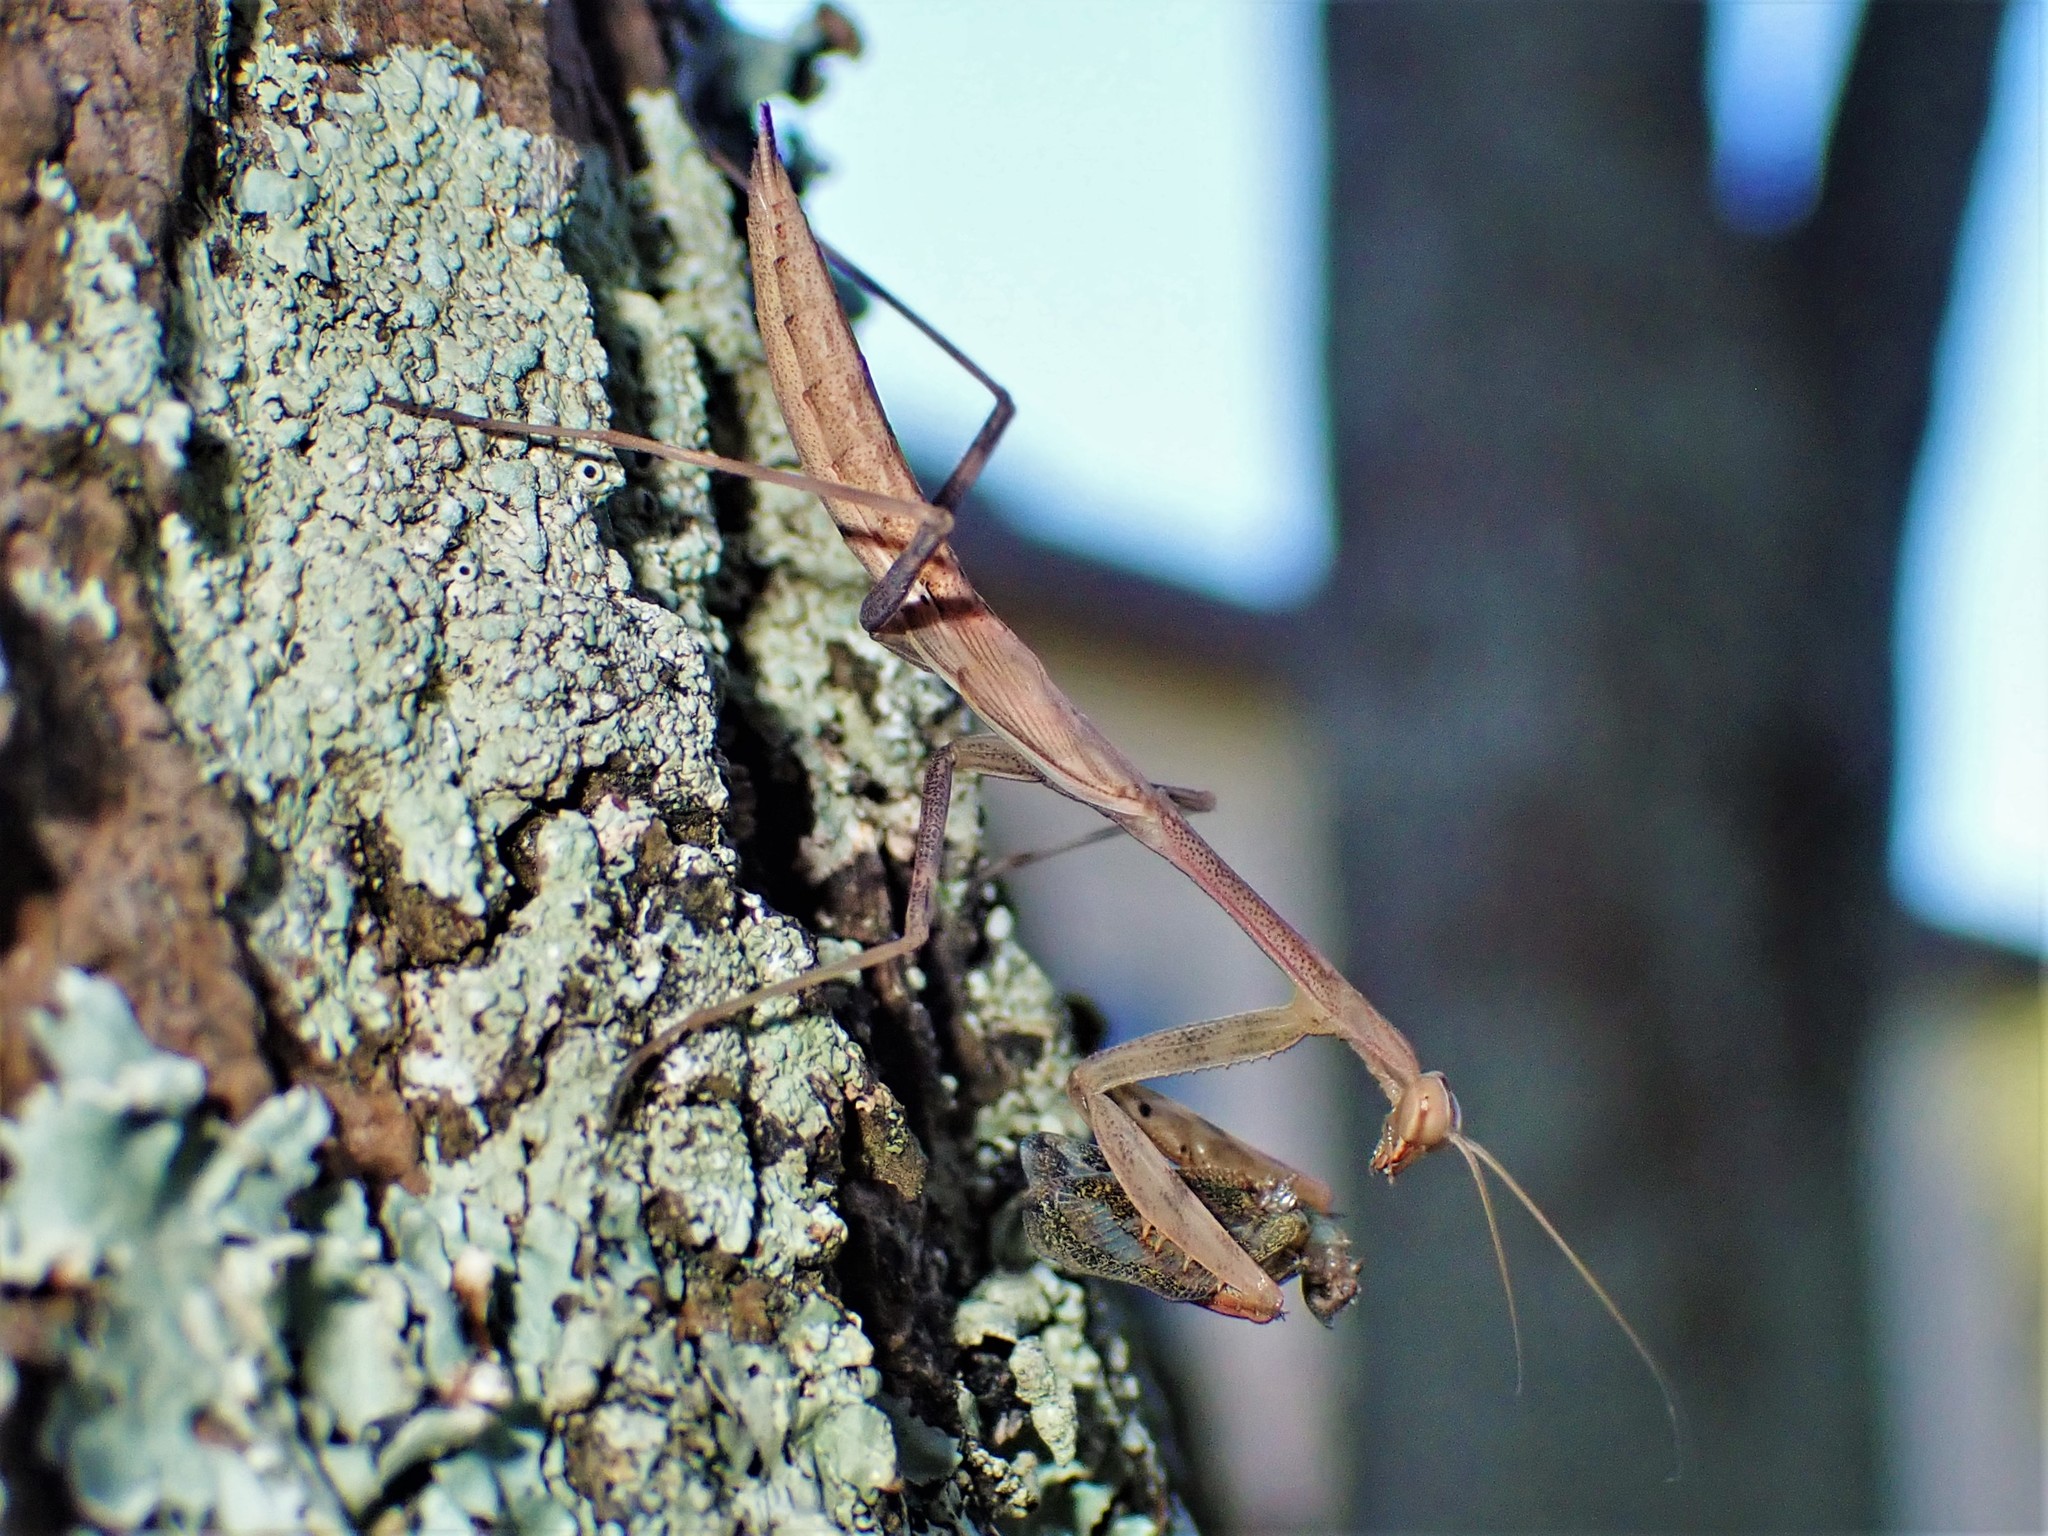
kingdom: Animalia
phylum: Arthropoda
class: Insecta
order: Mantodea
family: Miomantidae
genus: Miomantis
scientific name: Miomantis caffra
